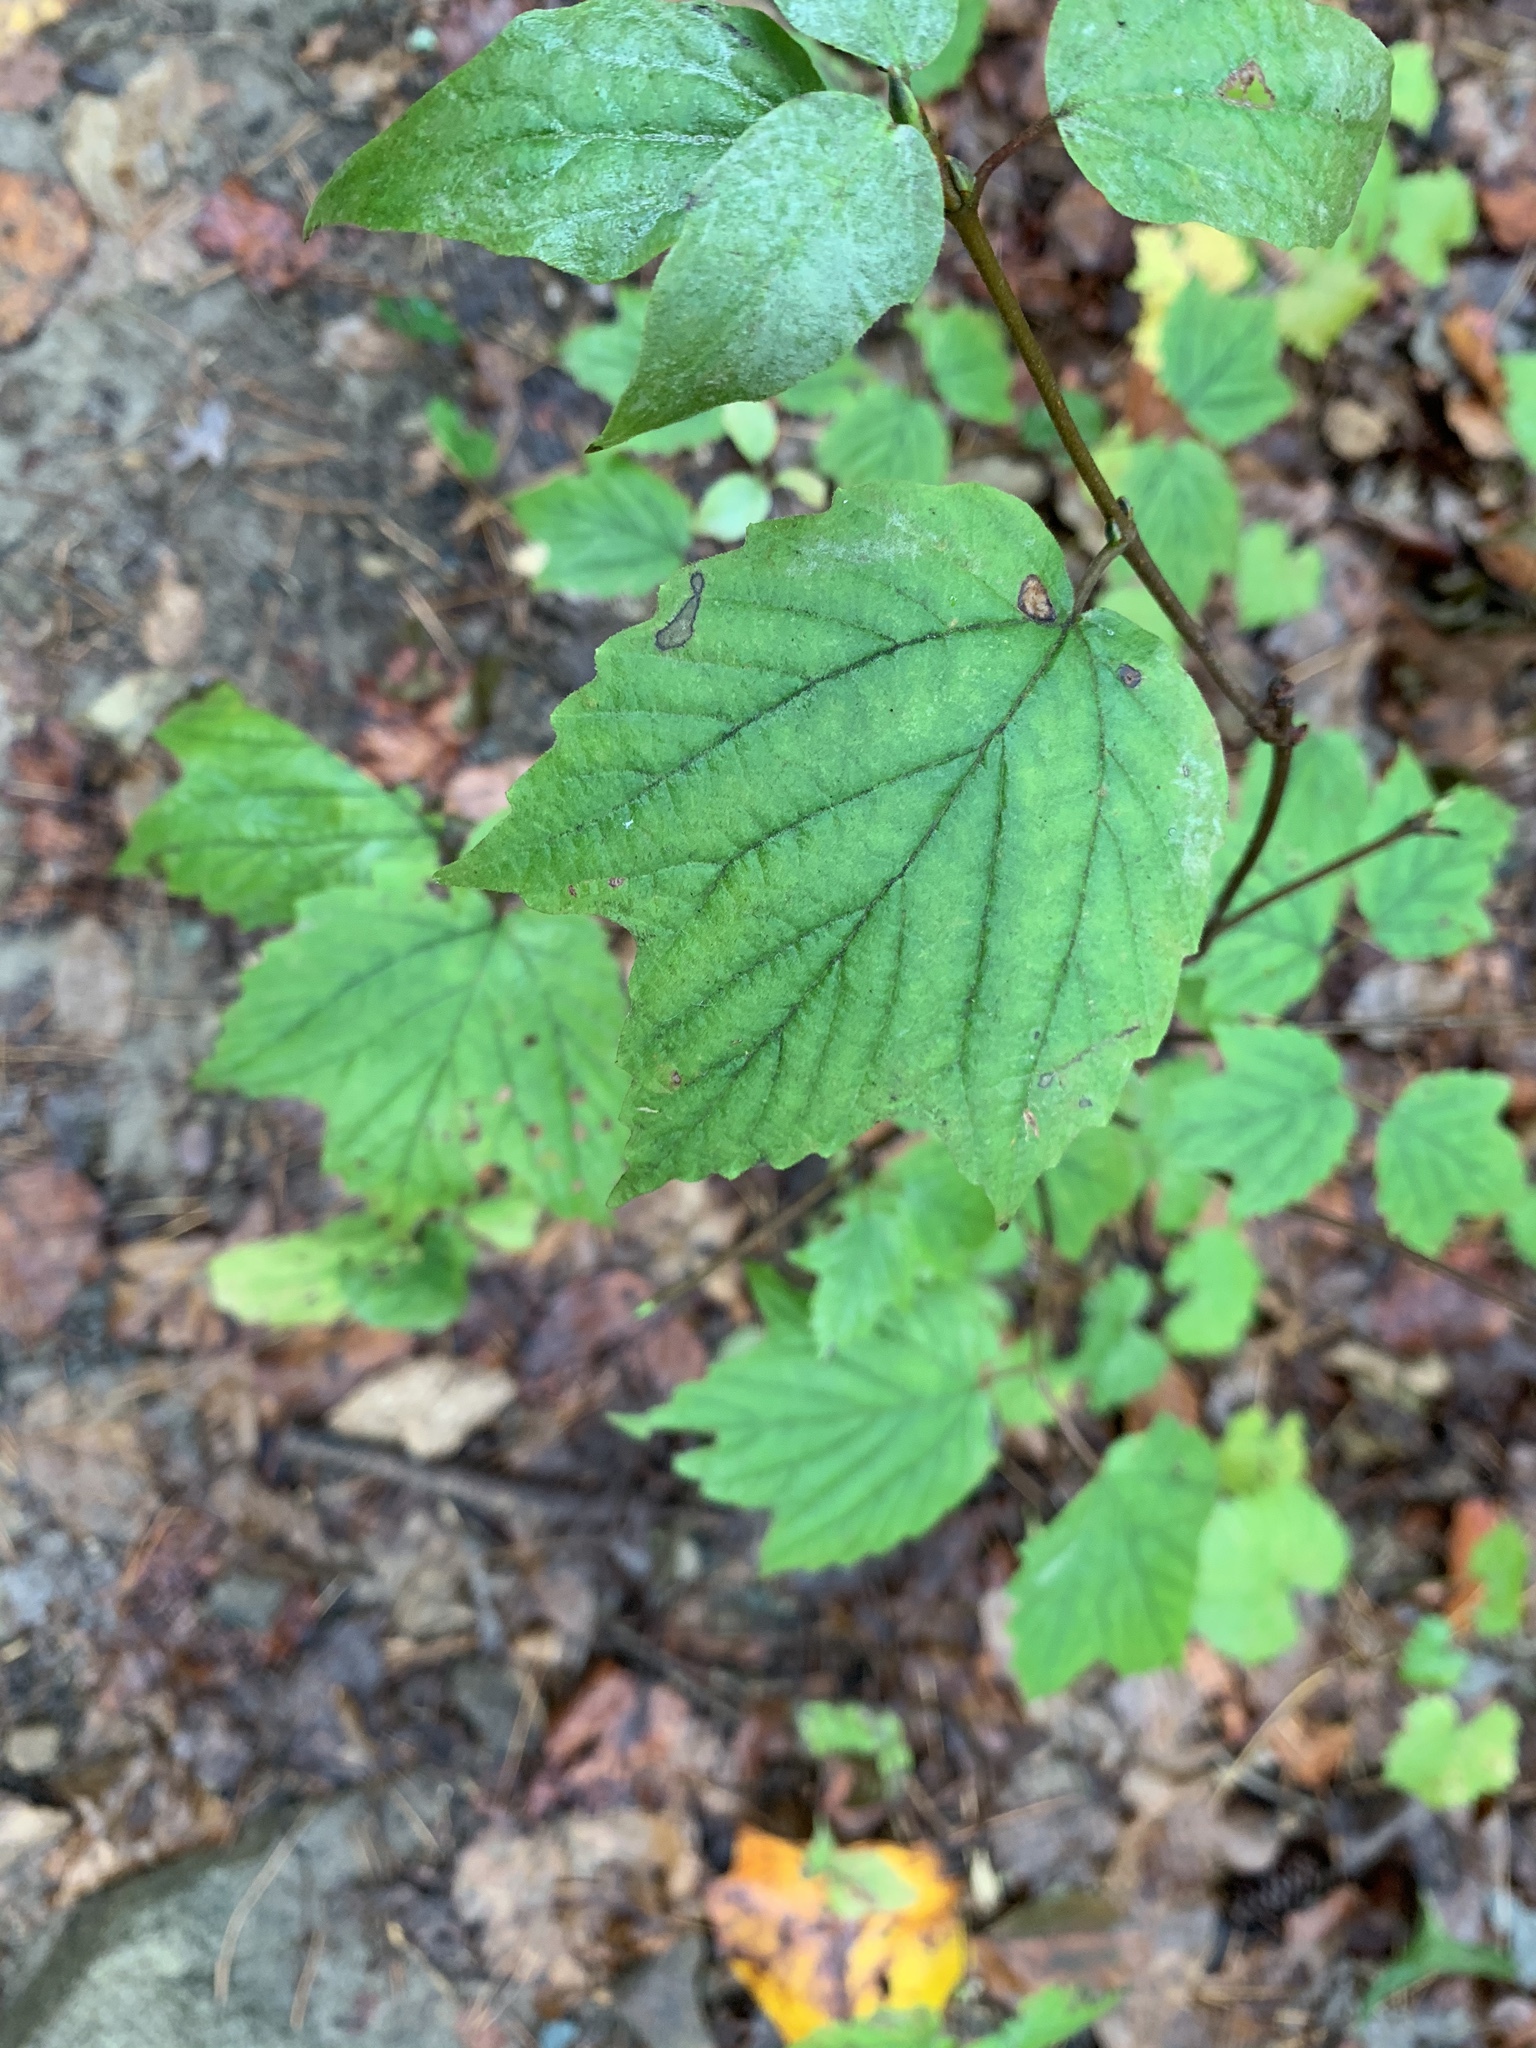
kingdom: Plantae
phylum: Tracheophyta
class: Magnoliopsida
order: Dipsacales
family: Viburnaceae
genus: Viburnum
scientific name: Viburnum acerifolium
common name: Dockmackie
